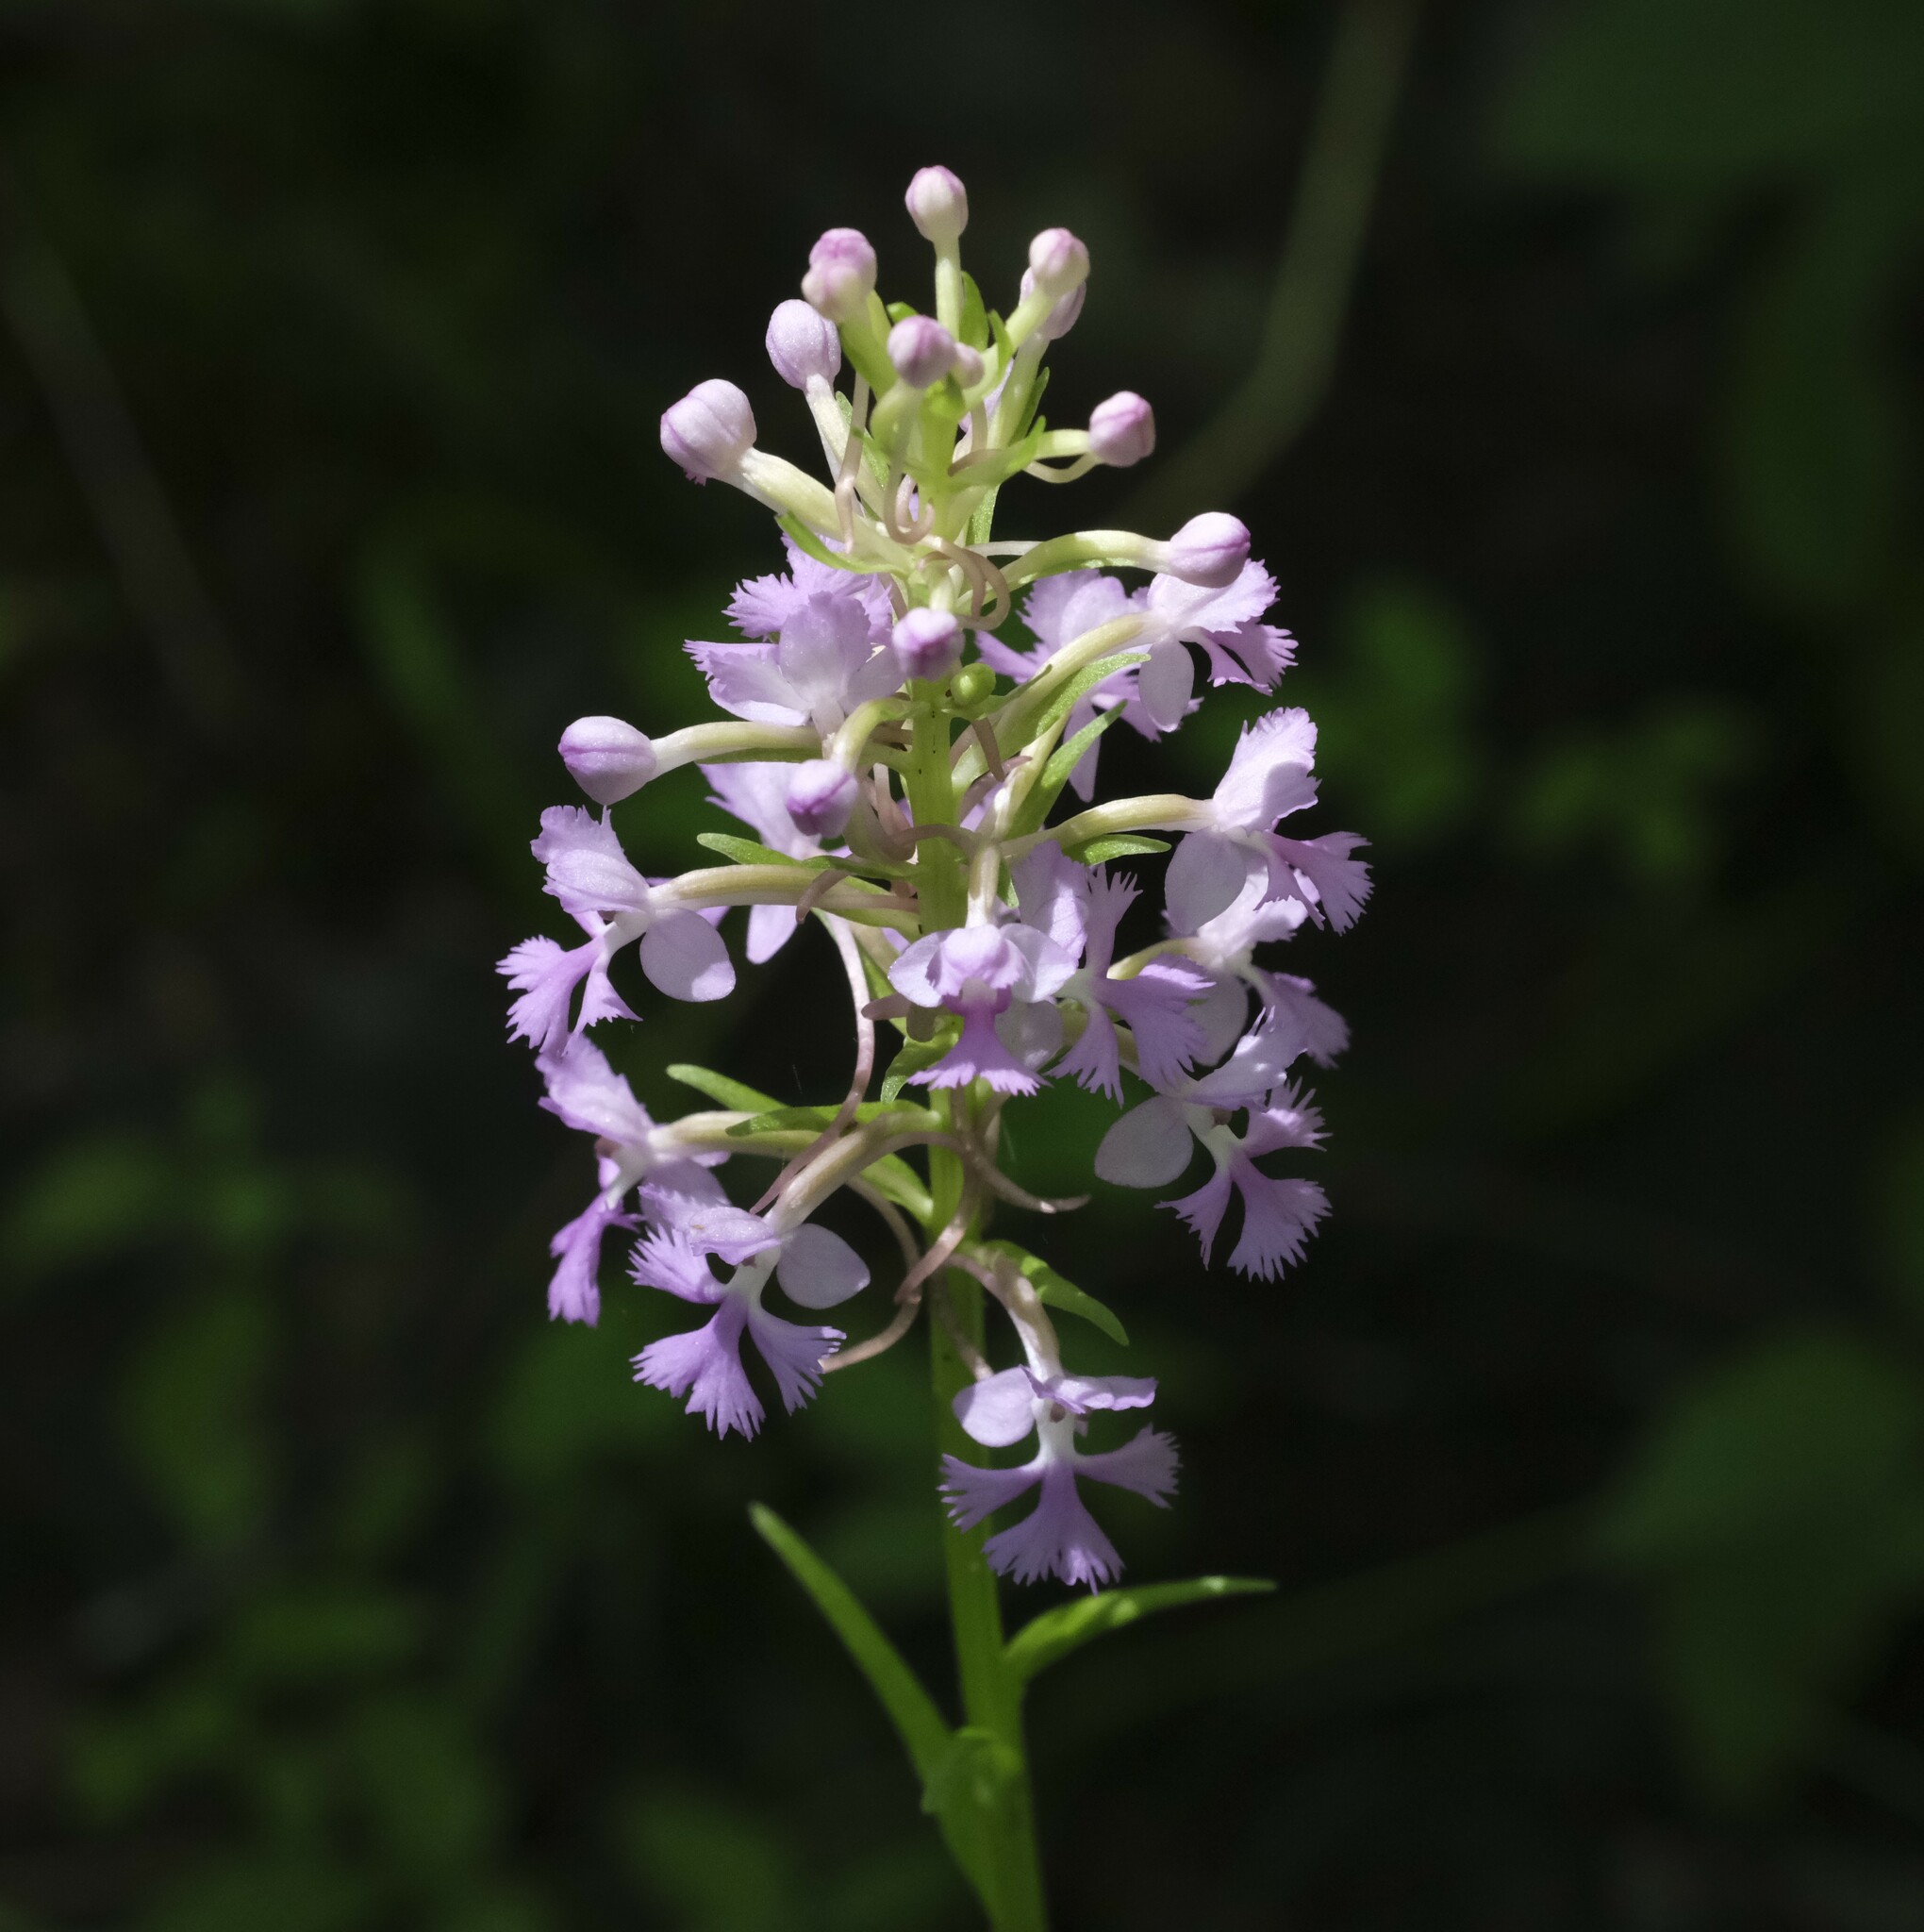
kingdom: Plantae
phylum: Tracheophyta
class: Liliopsida
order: Asparagales
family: Orchidaceae
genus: Platanthera
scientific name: Platanthera psycodes
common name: Lesser purple fringed orchid
